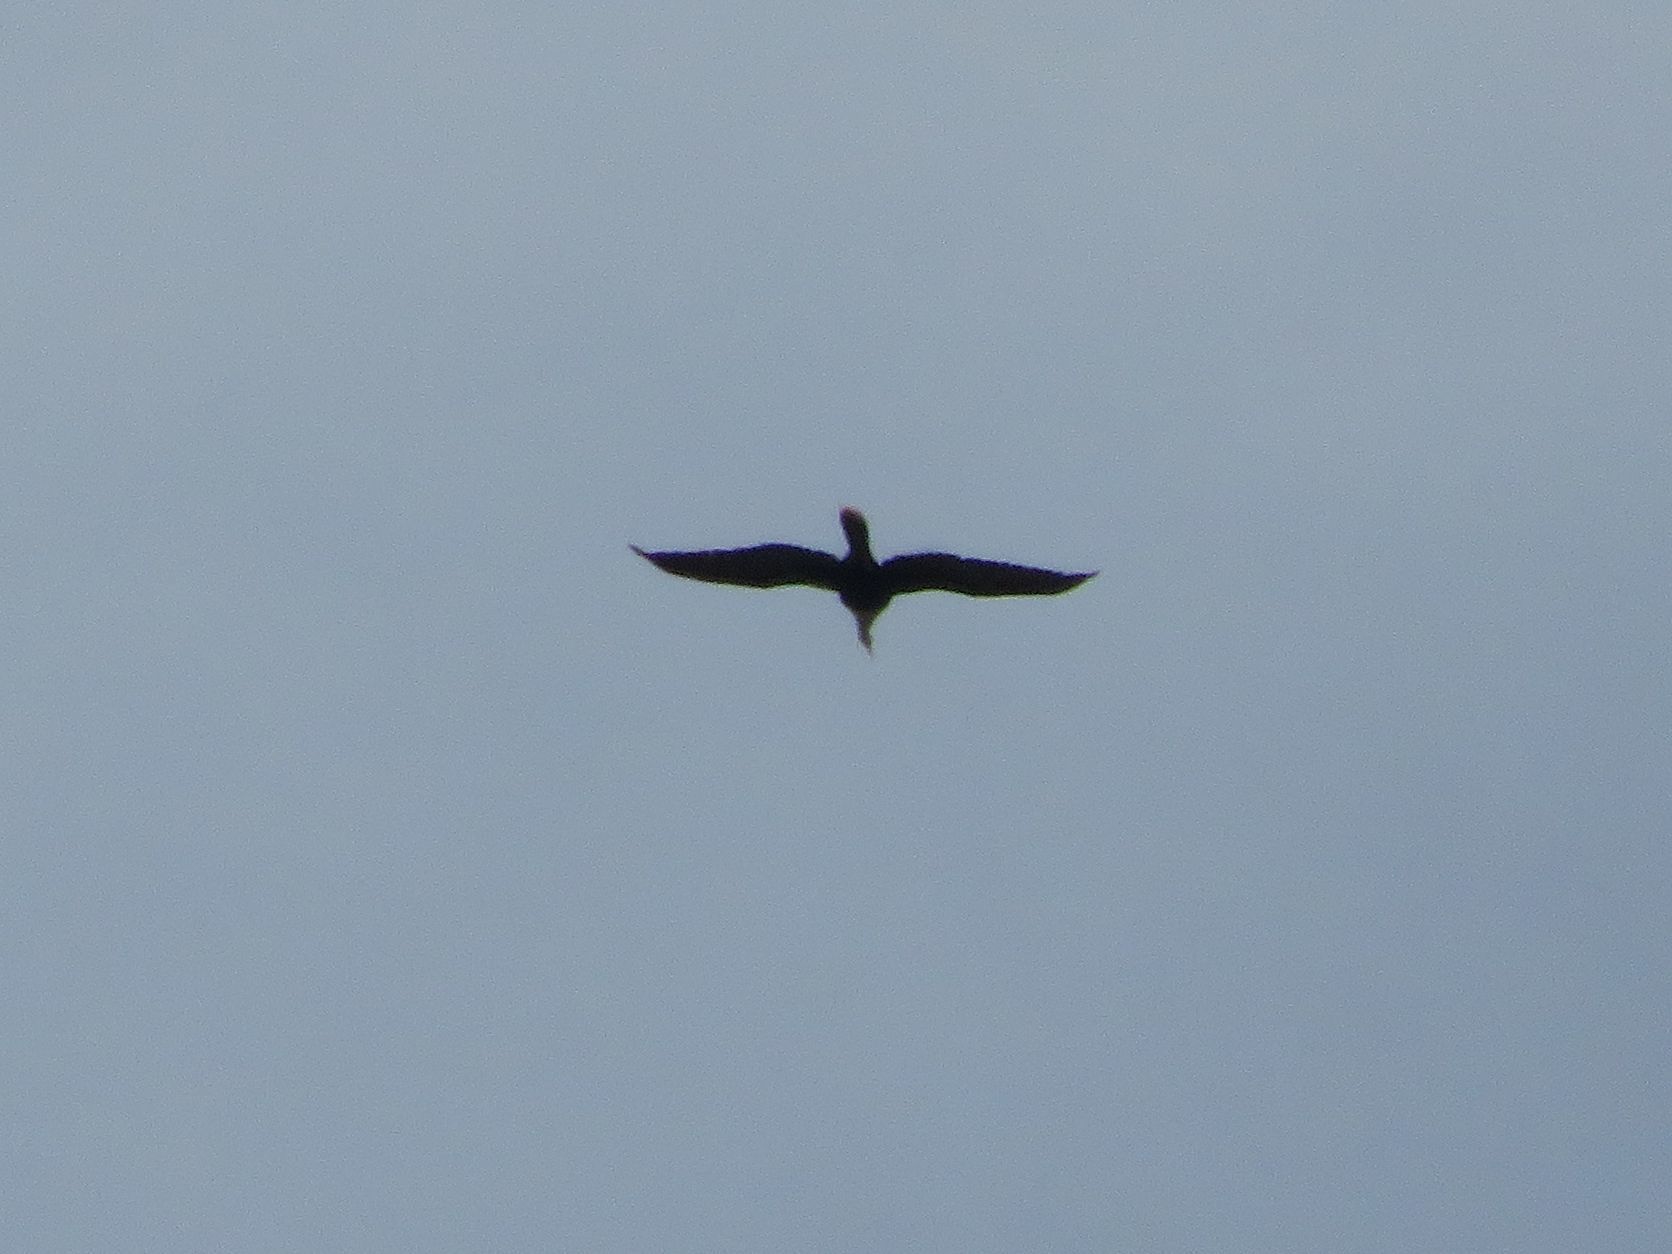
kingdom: Animalia
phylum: Chordata
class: Aves
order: Suliformes
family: Anhingidae
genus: Anhinga
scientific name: Anhinga anhinga
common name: Anhinga
